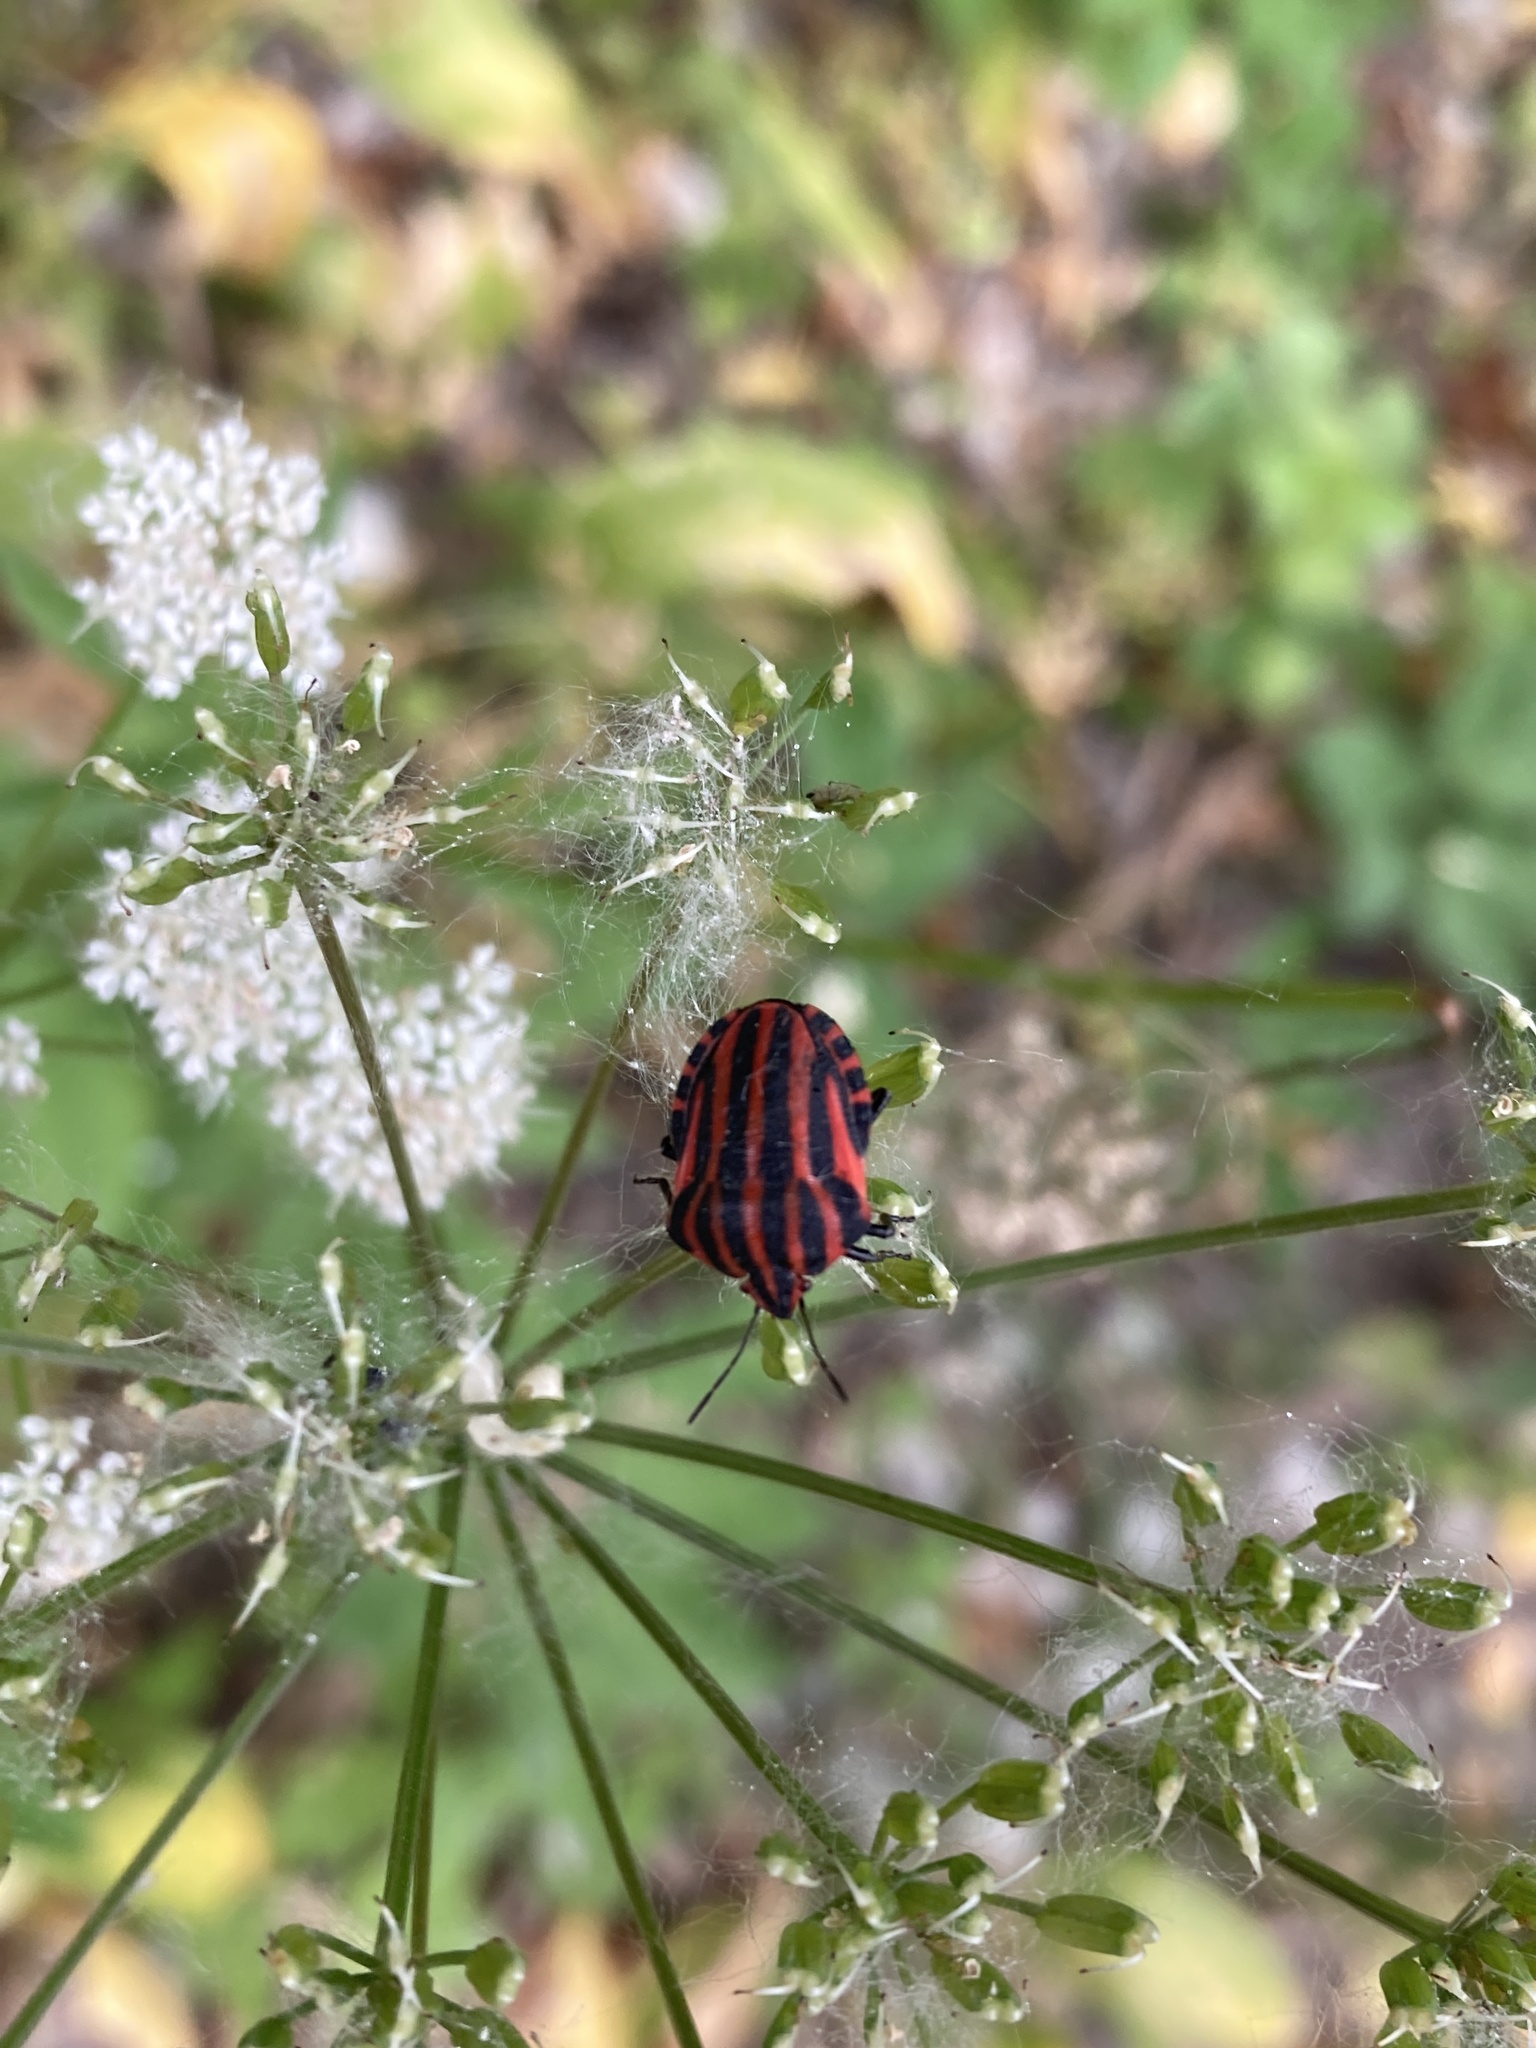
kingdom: Animalia
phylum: Arthropoda
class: Insecta
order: Hemiptera
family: Pentatomidae
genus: Graphosoma
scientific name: Graphosoma italicum
